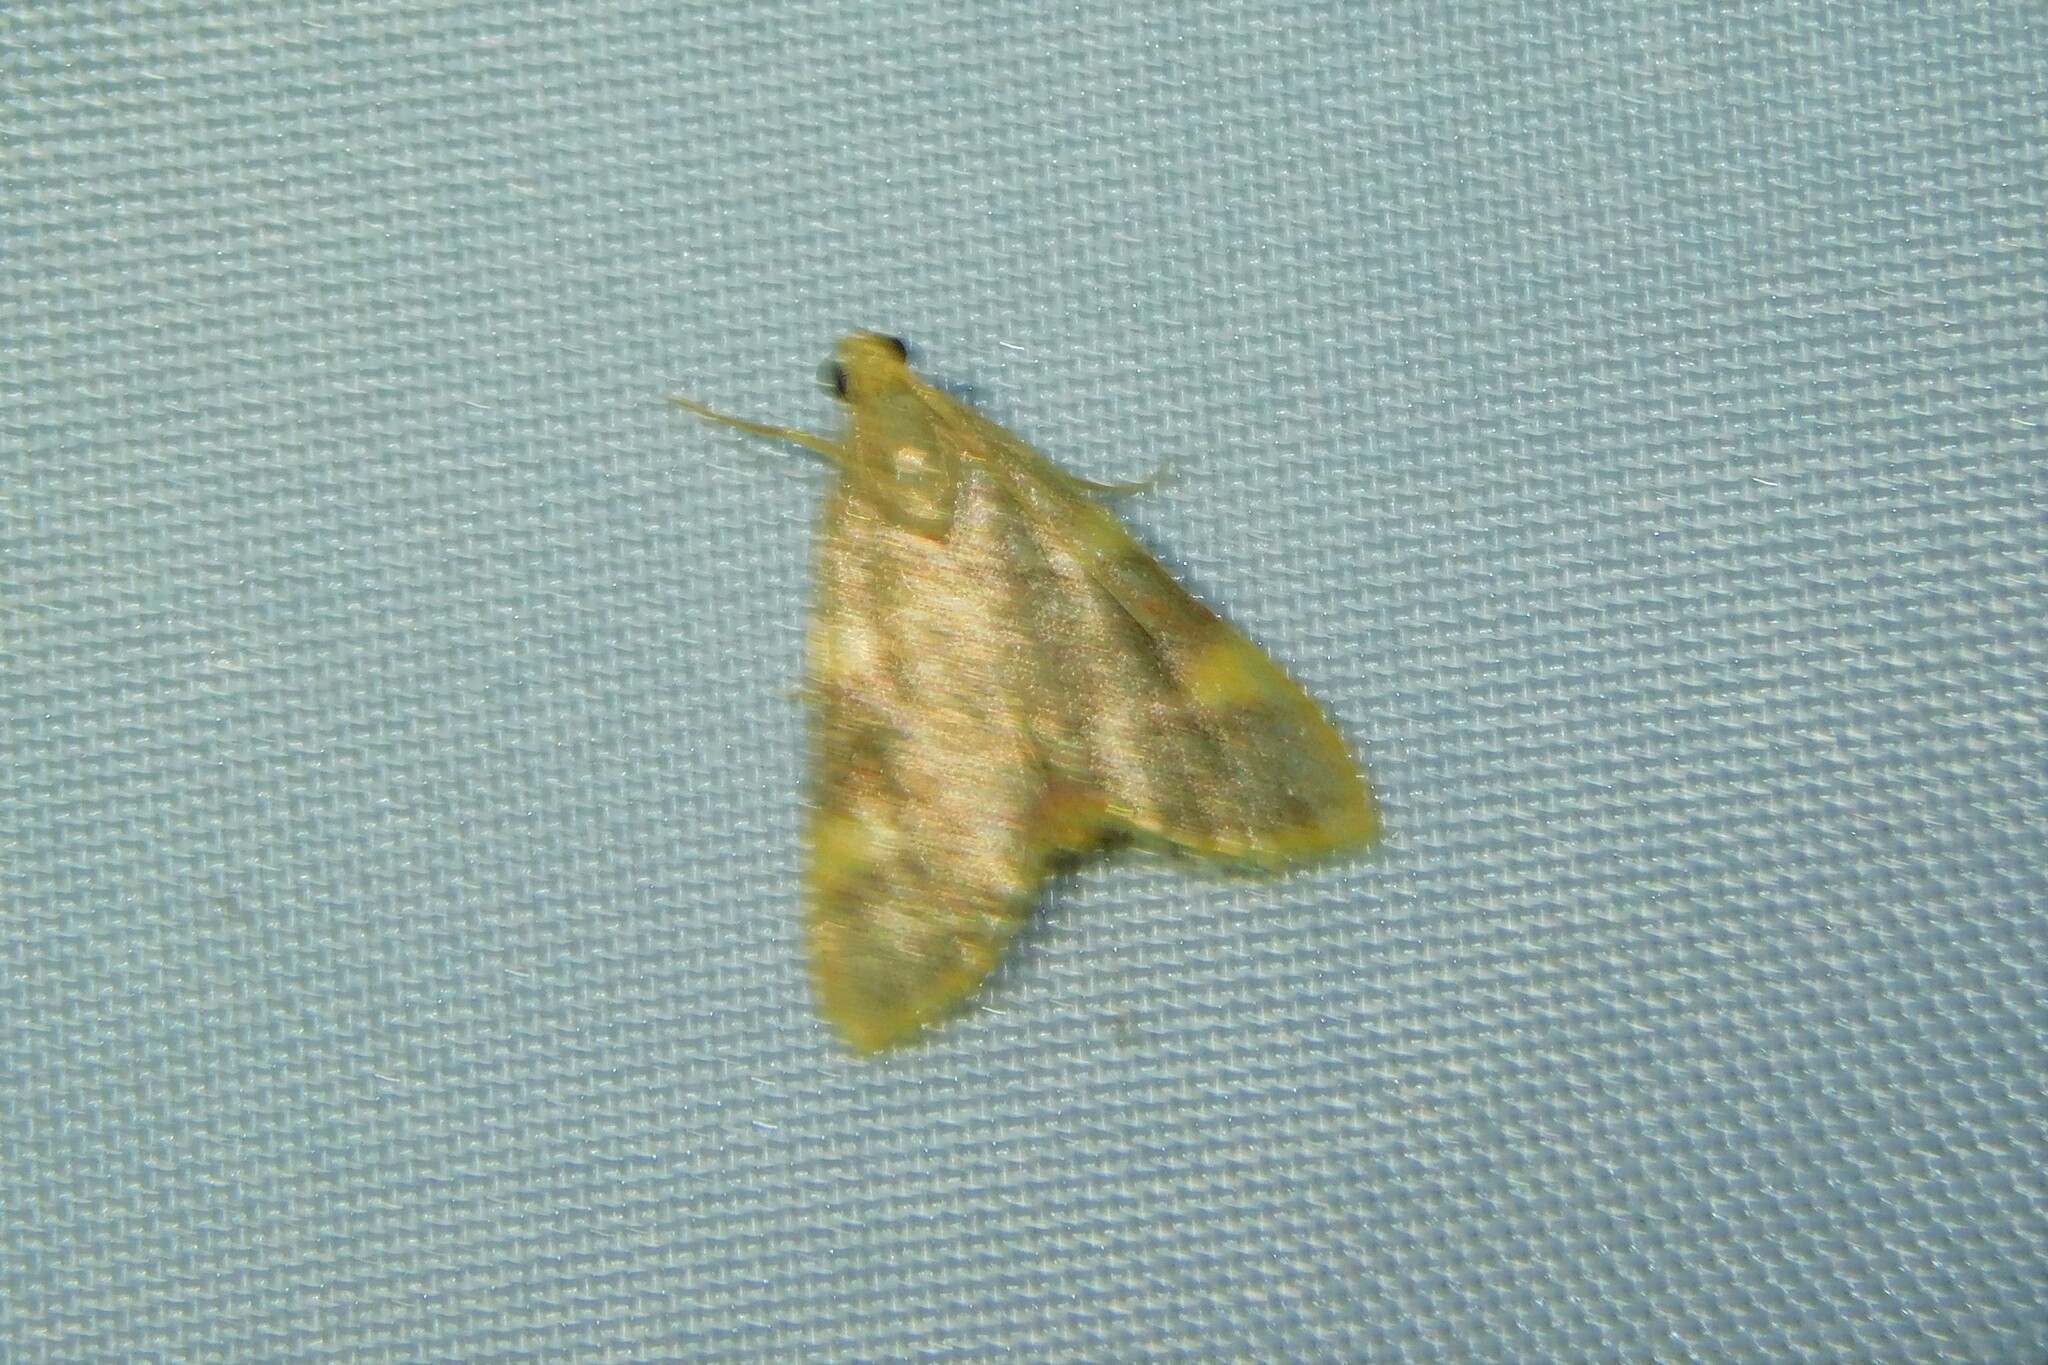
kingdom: Animalia
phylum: Arthropoda
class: Insecta
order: Lepidoptera
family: Pyralidae
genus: Hypsopygia
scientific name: Hypsopygia costalis
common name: Gold triangle
